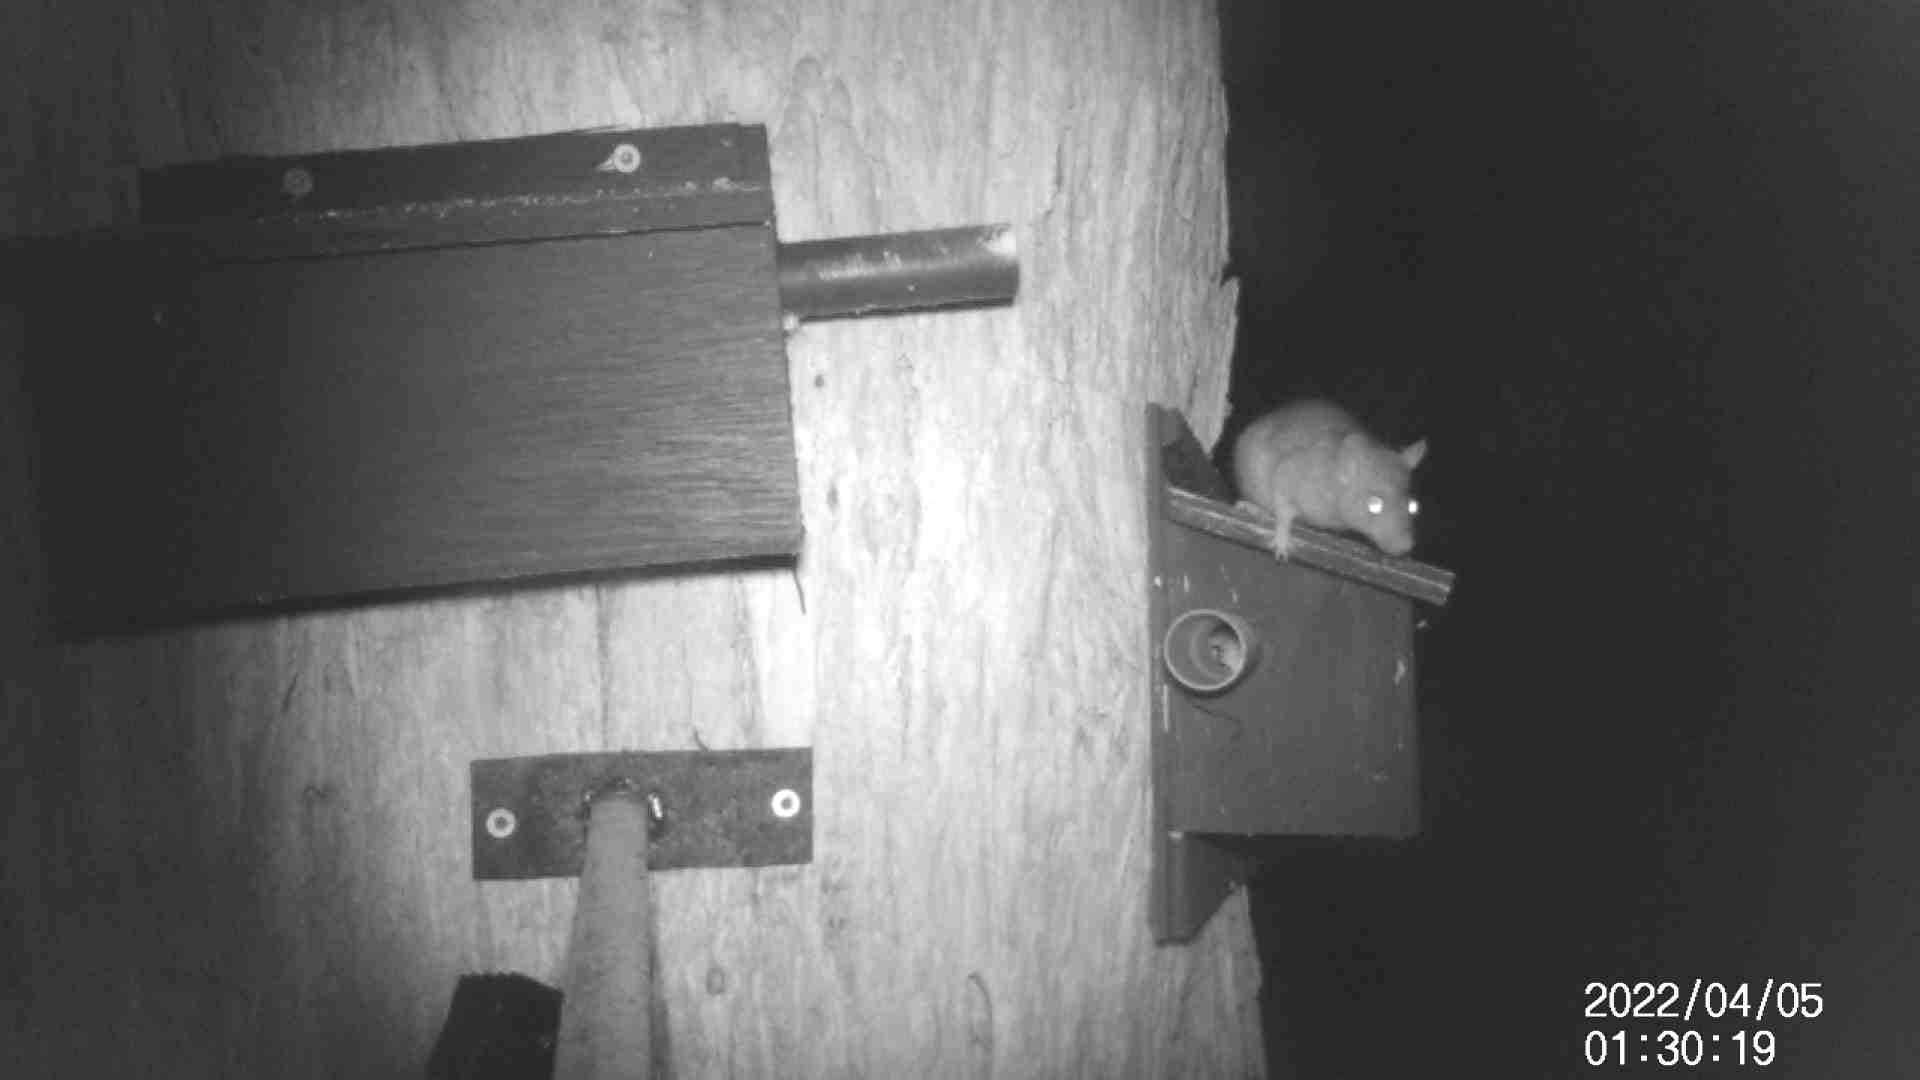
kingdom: Animalia
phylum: Chordata
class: Mammalia
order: Rodentia
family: Muridae
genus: Rattus
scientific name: Rattus rattus
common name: Black rat
